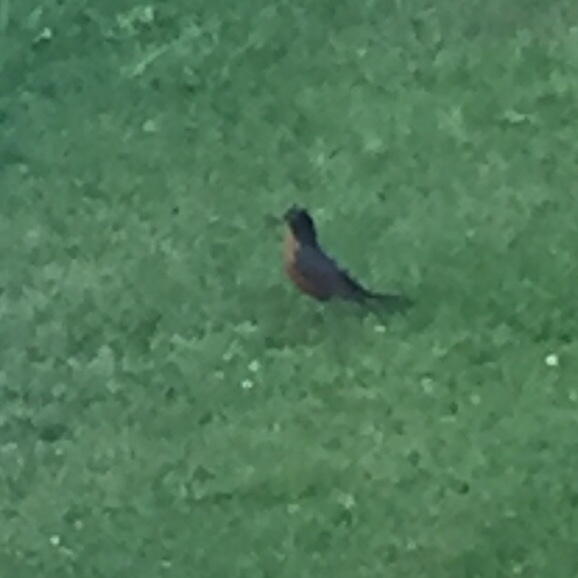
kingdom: Animalia
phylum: Chordata
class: Aves
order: Passeriformes
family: Turdidae
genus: Turdus
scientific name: Turdus migratorius
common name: American robin
